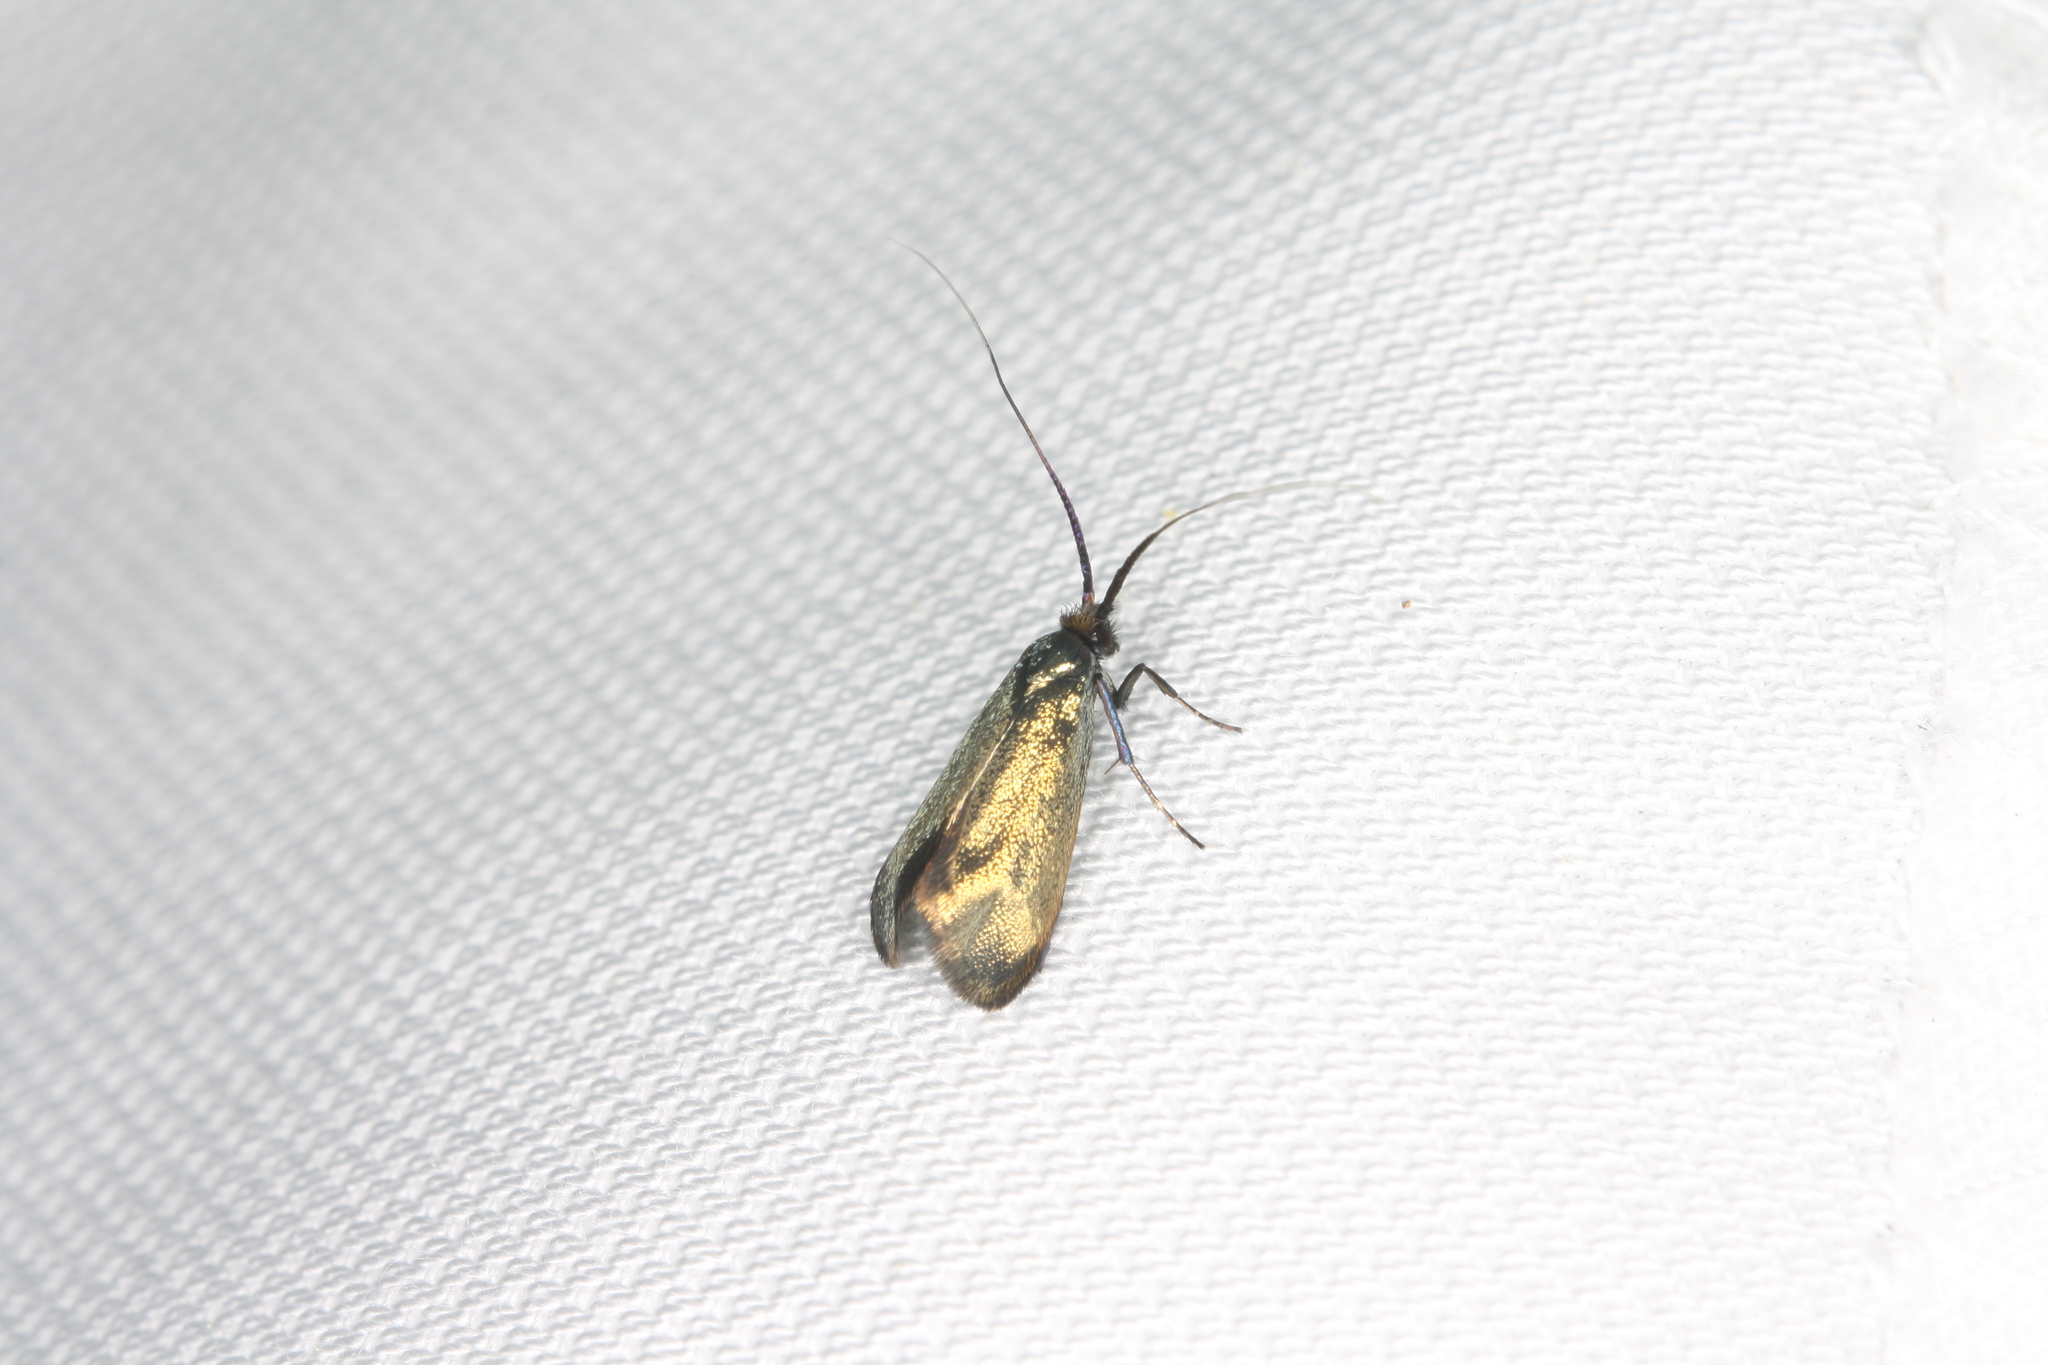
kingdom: Animalia
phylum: Arthropoda
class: Insecta
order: Lepidoptera
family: Adelidae
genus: Adela
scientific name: Adela viridella
